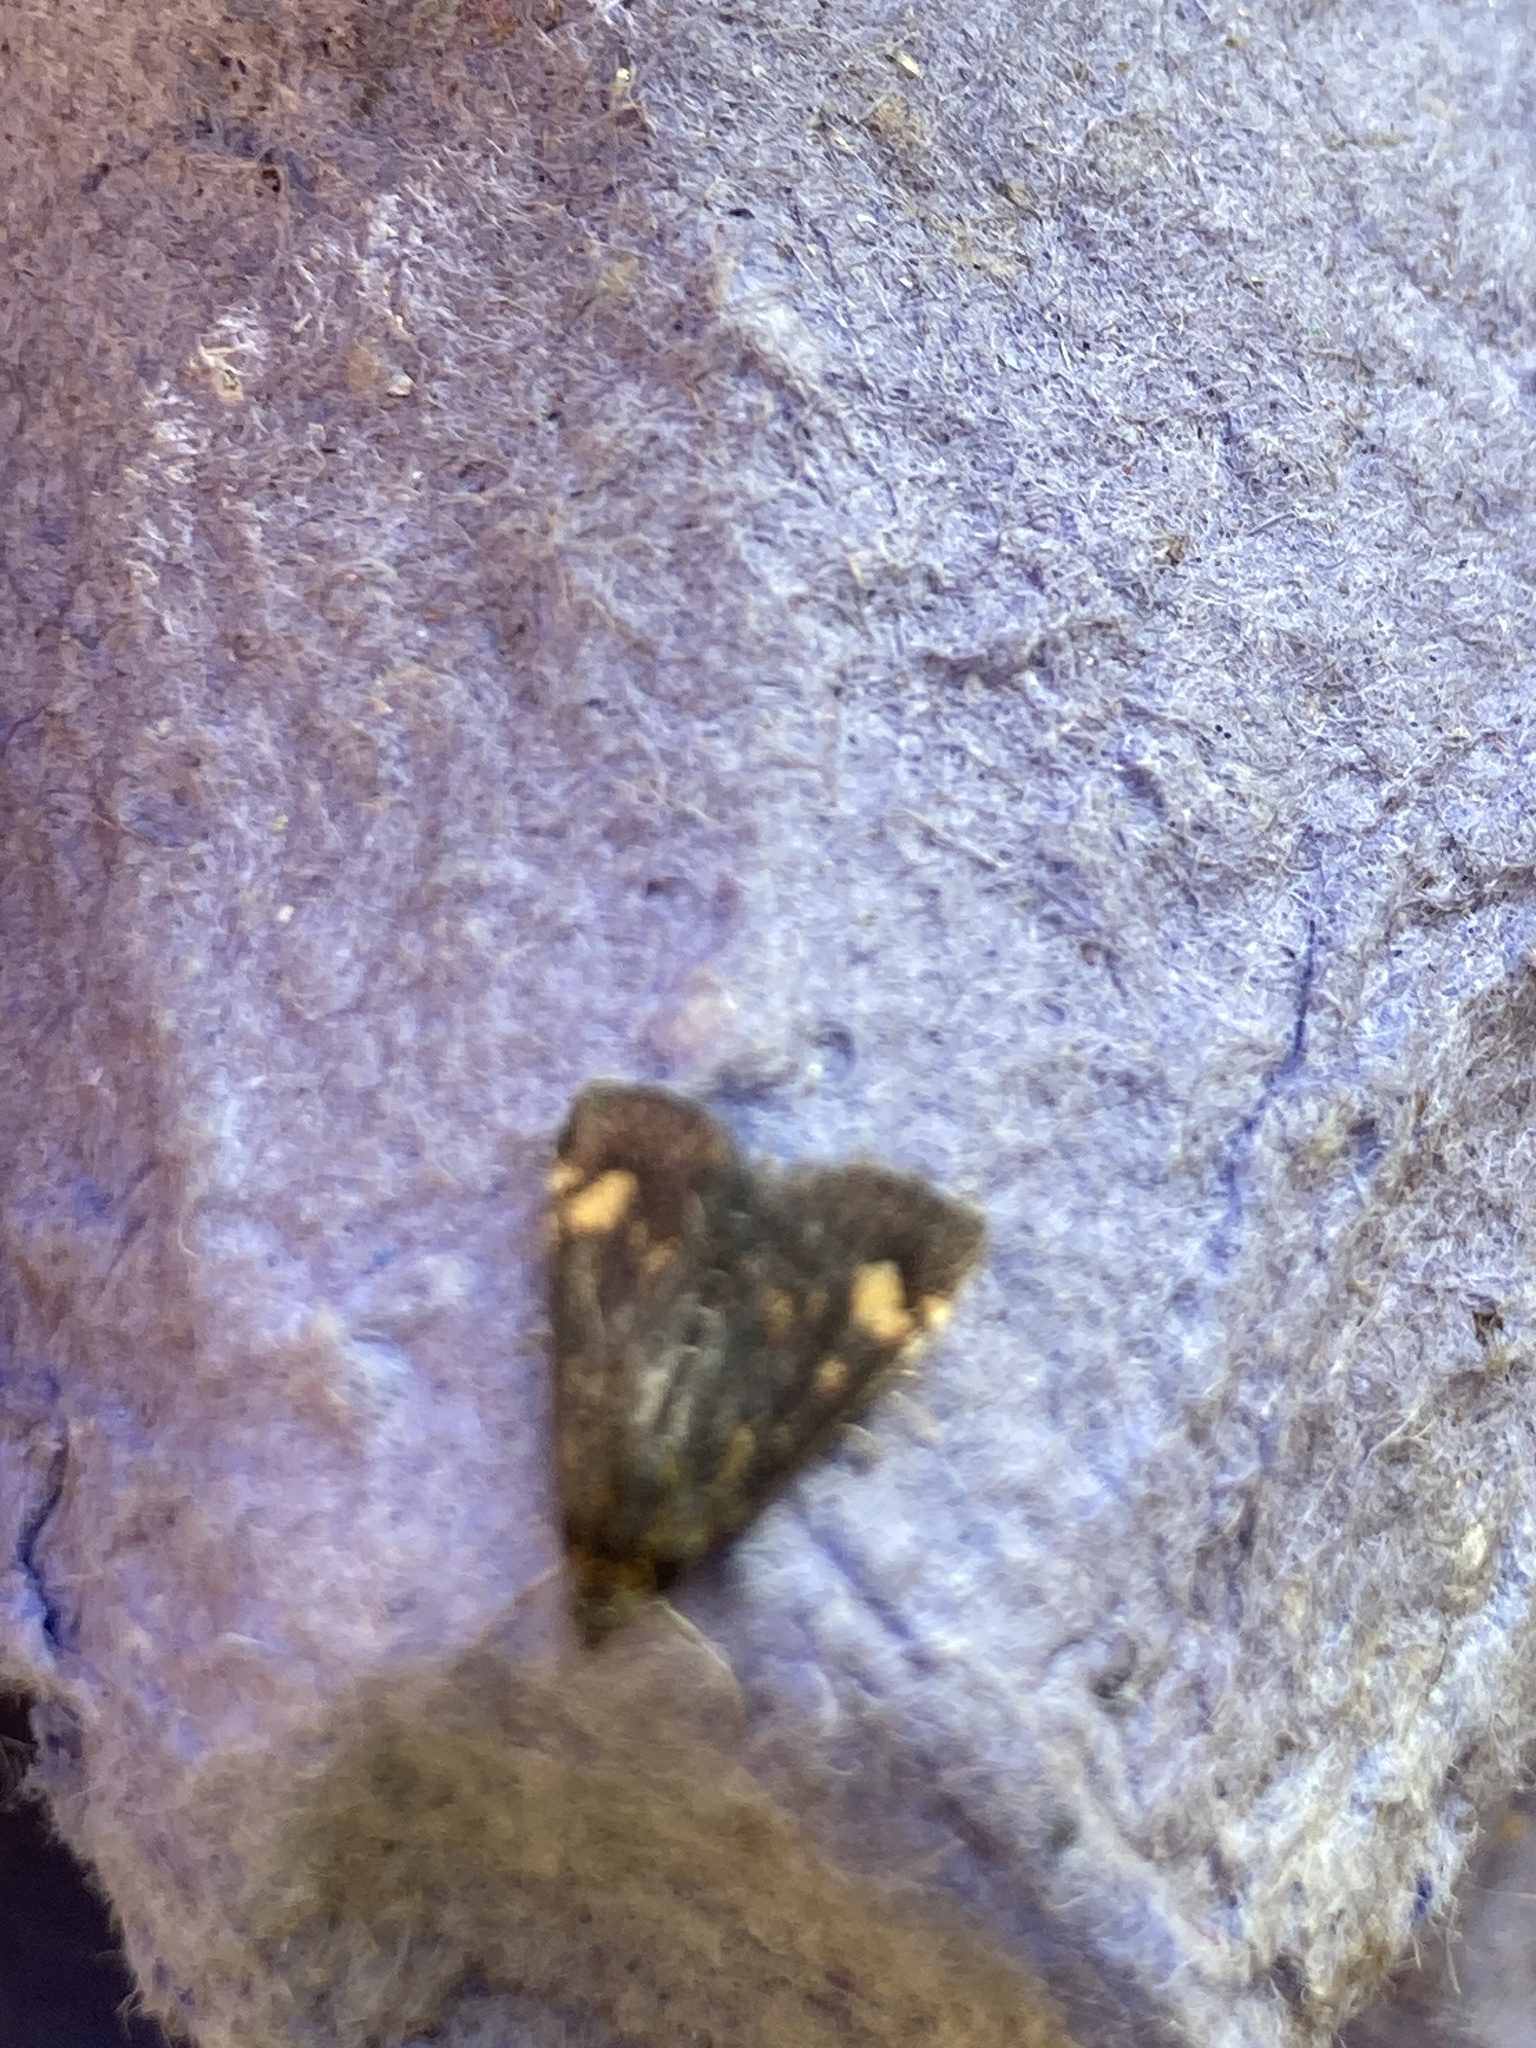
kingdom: Animalia
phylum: Arthropoda
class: Insecta
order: Lepidoptera
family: Crambidae
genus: Pyrausta
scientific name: Pyrausta aurata
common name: Small purple & gold
